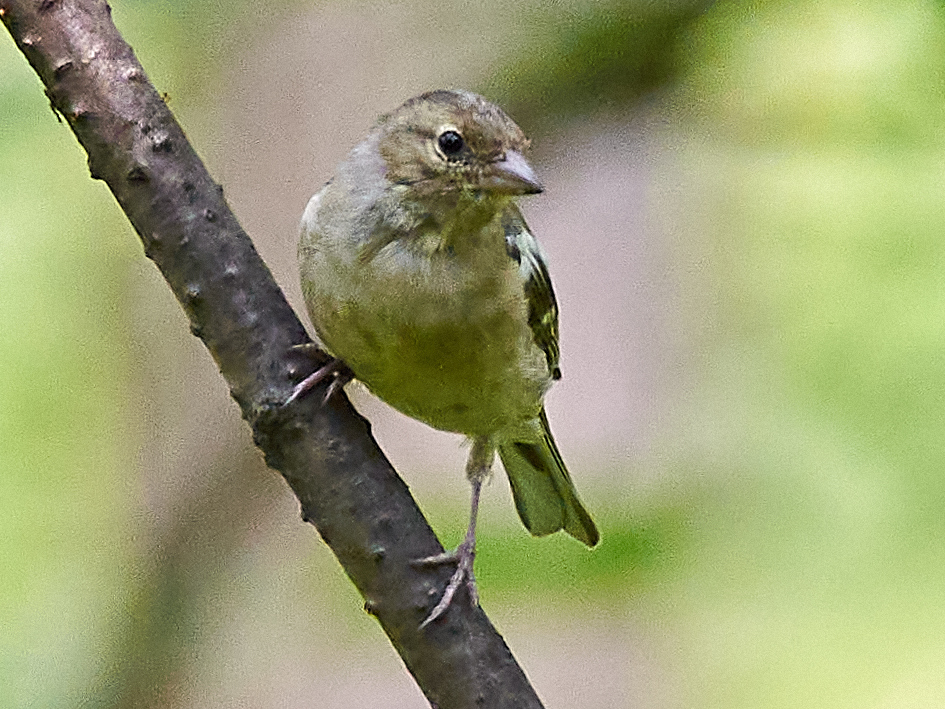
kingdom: Animalia
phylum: Chordata
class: Aves
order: Passeriformes
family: Fringillidae
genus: Fringilla
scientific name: Fringilla coelebs
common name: Common chaffinch
